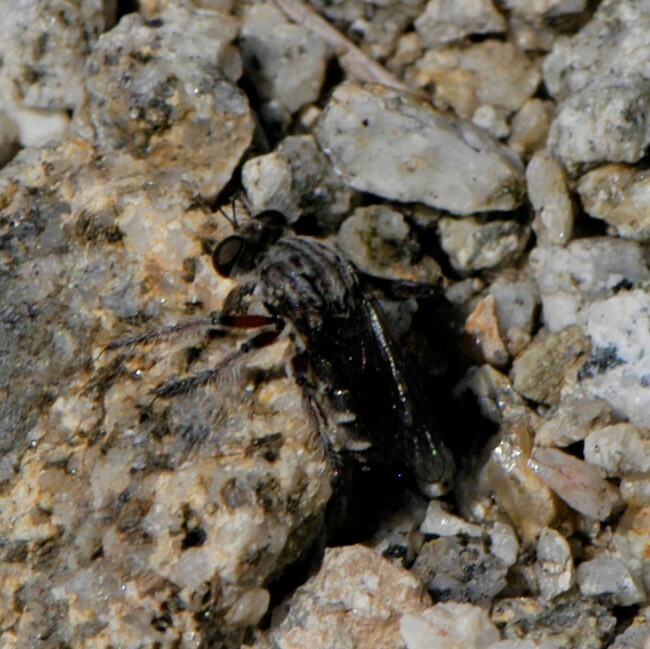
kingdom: Animalia
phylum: Arthropoda
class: Insecta
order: Diptera
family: Asilidae
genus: Hodophylax
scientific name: Hodophylax
